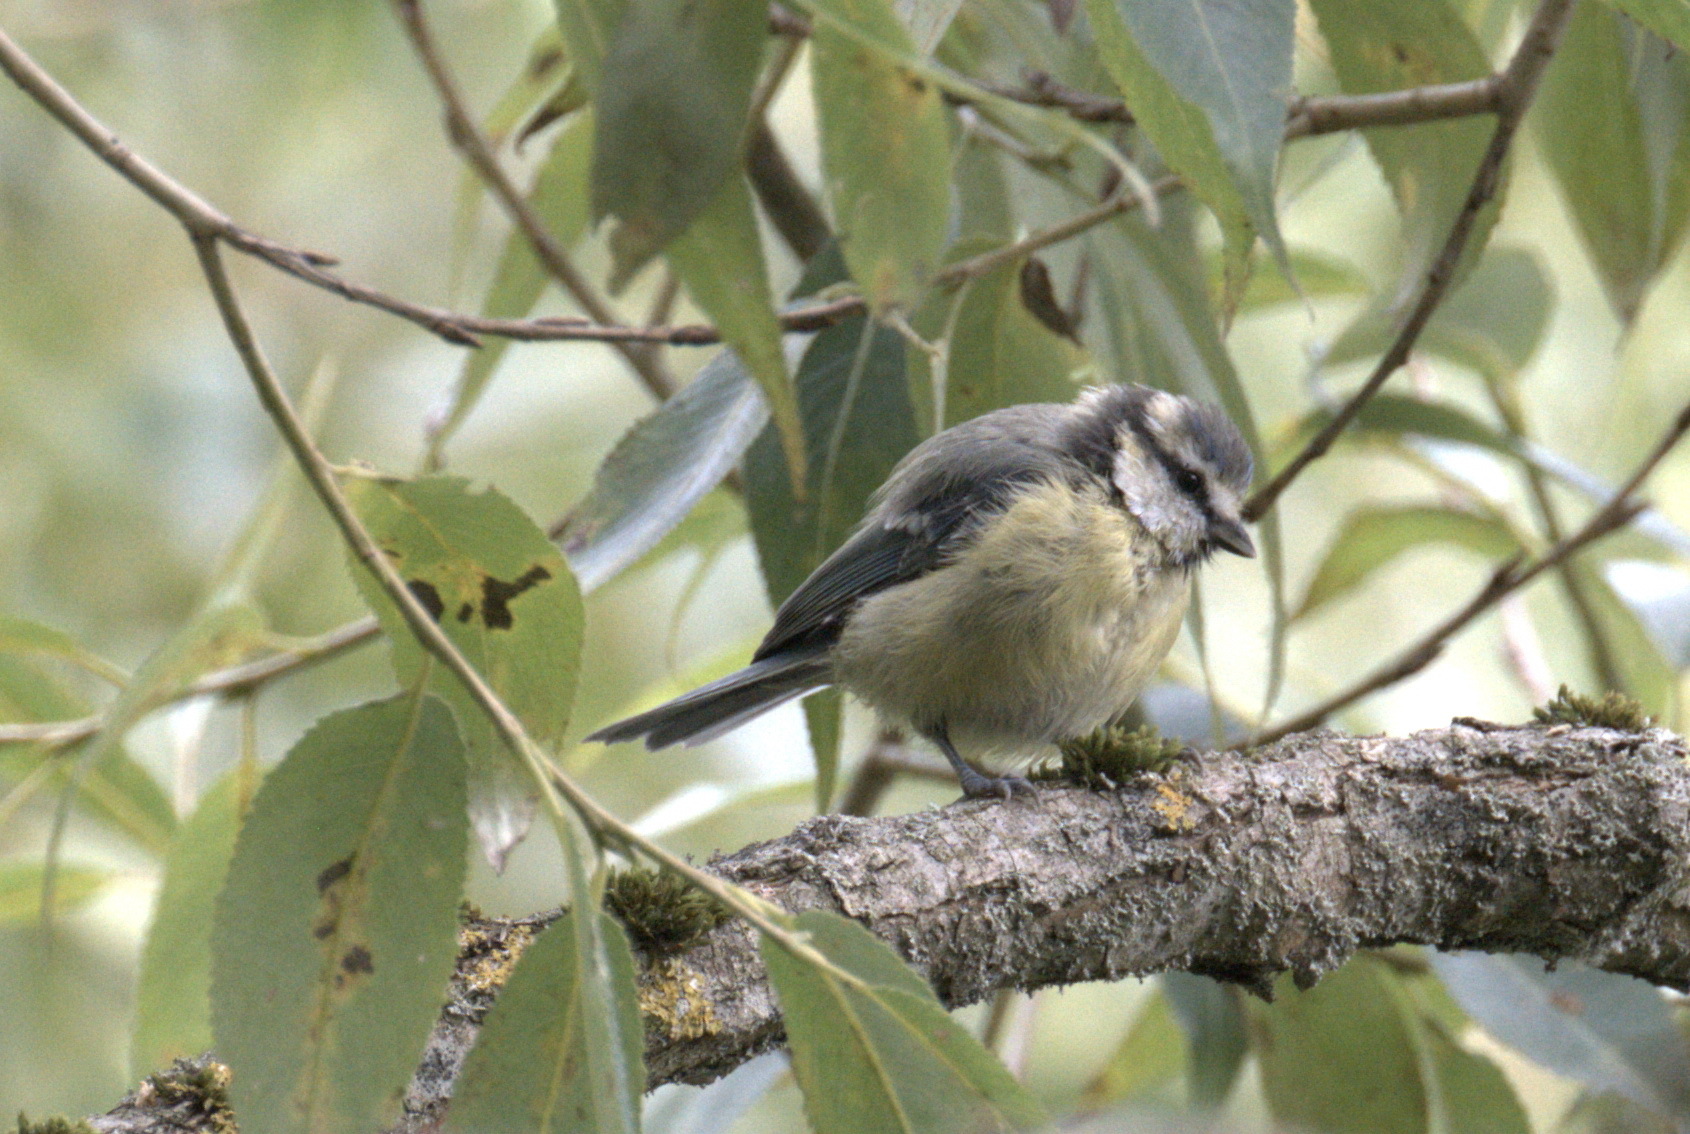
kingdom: Animalia
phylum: Chordata
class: Aves
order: Passeriformes
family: Paridae
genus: Cyanistes
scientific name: Cyanistes caeruleus
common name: Eurasian blue tit
